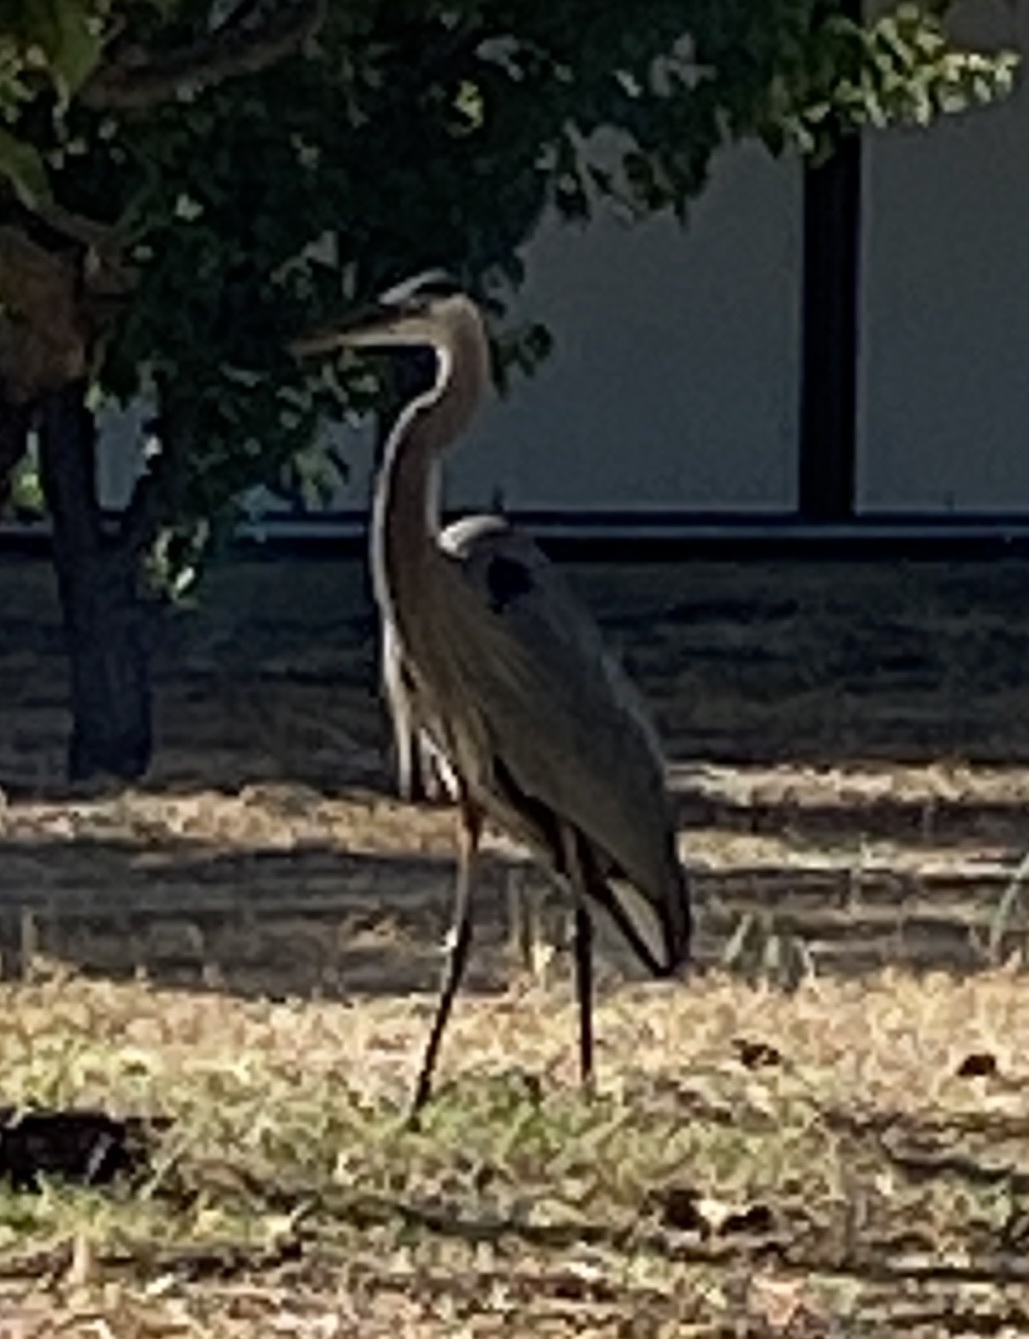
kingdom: Animalia
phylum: Chordata
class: Aves
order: Pelecaniformes
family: Ardeidae
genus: Ardea
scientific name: Ardea herodias
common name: Great blue heron
